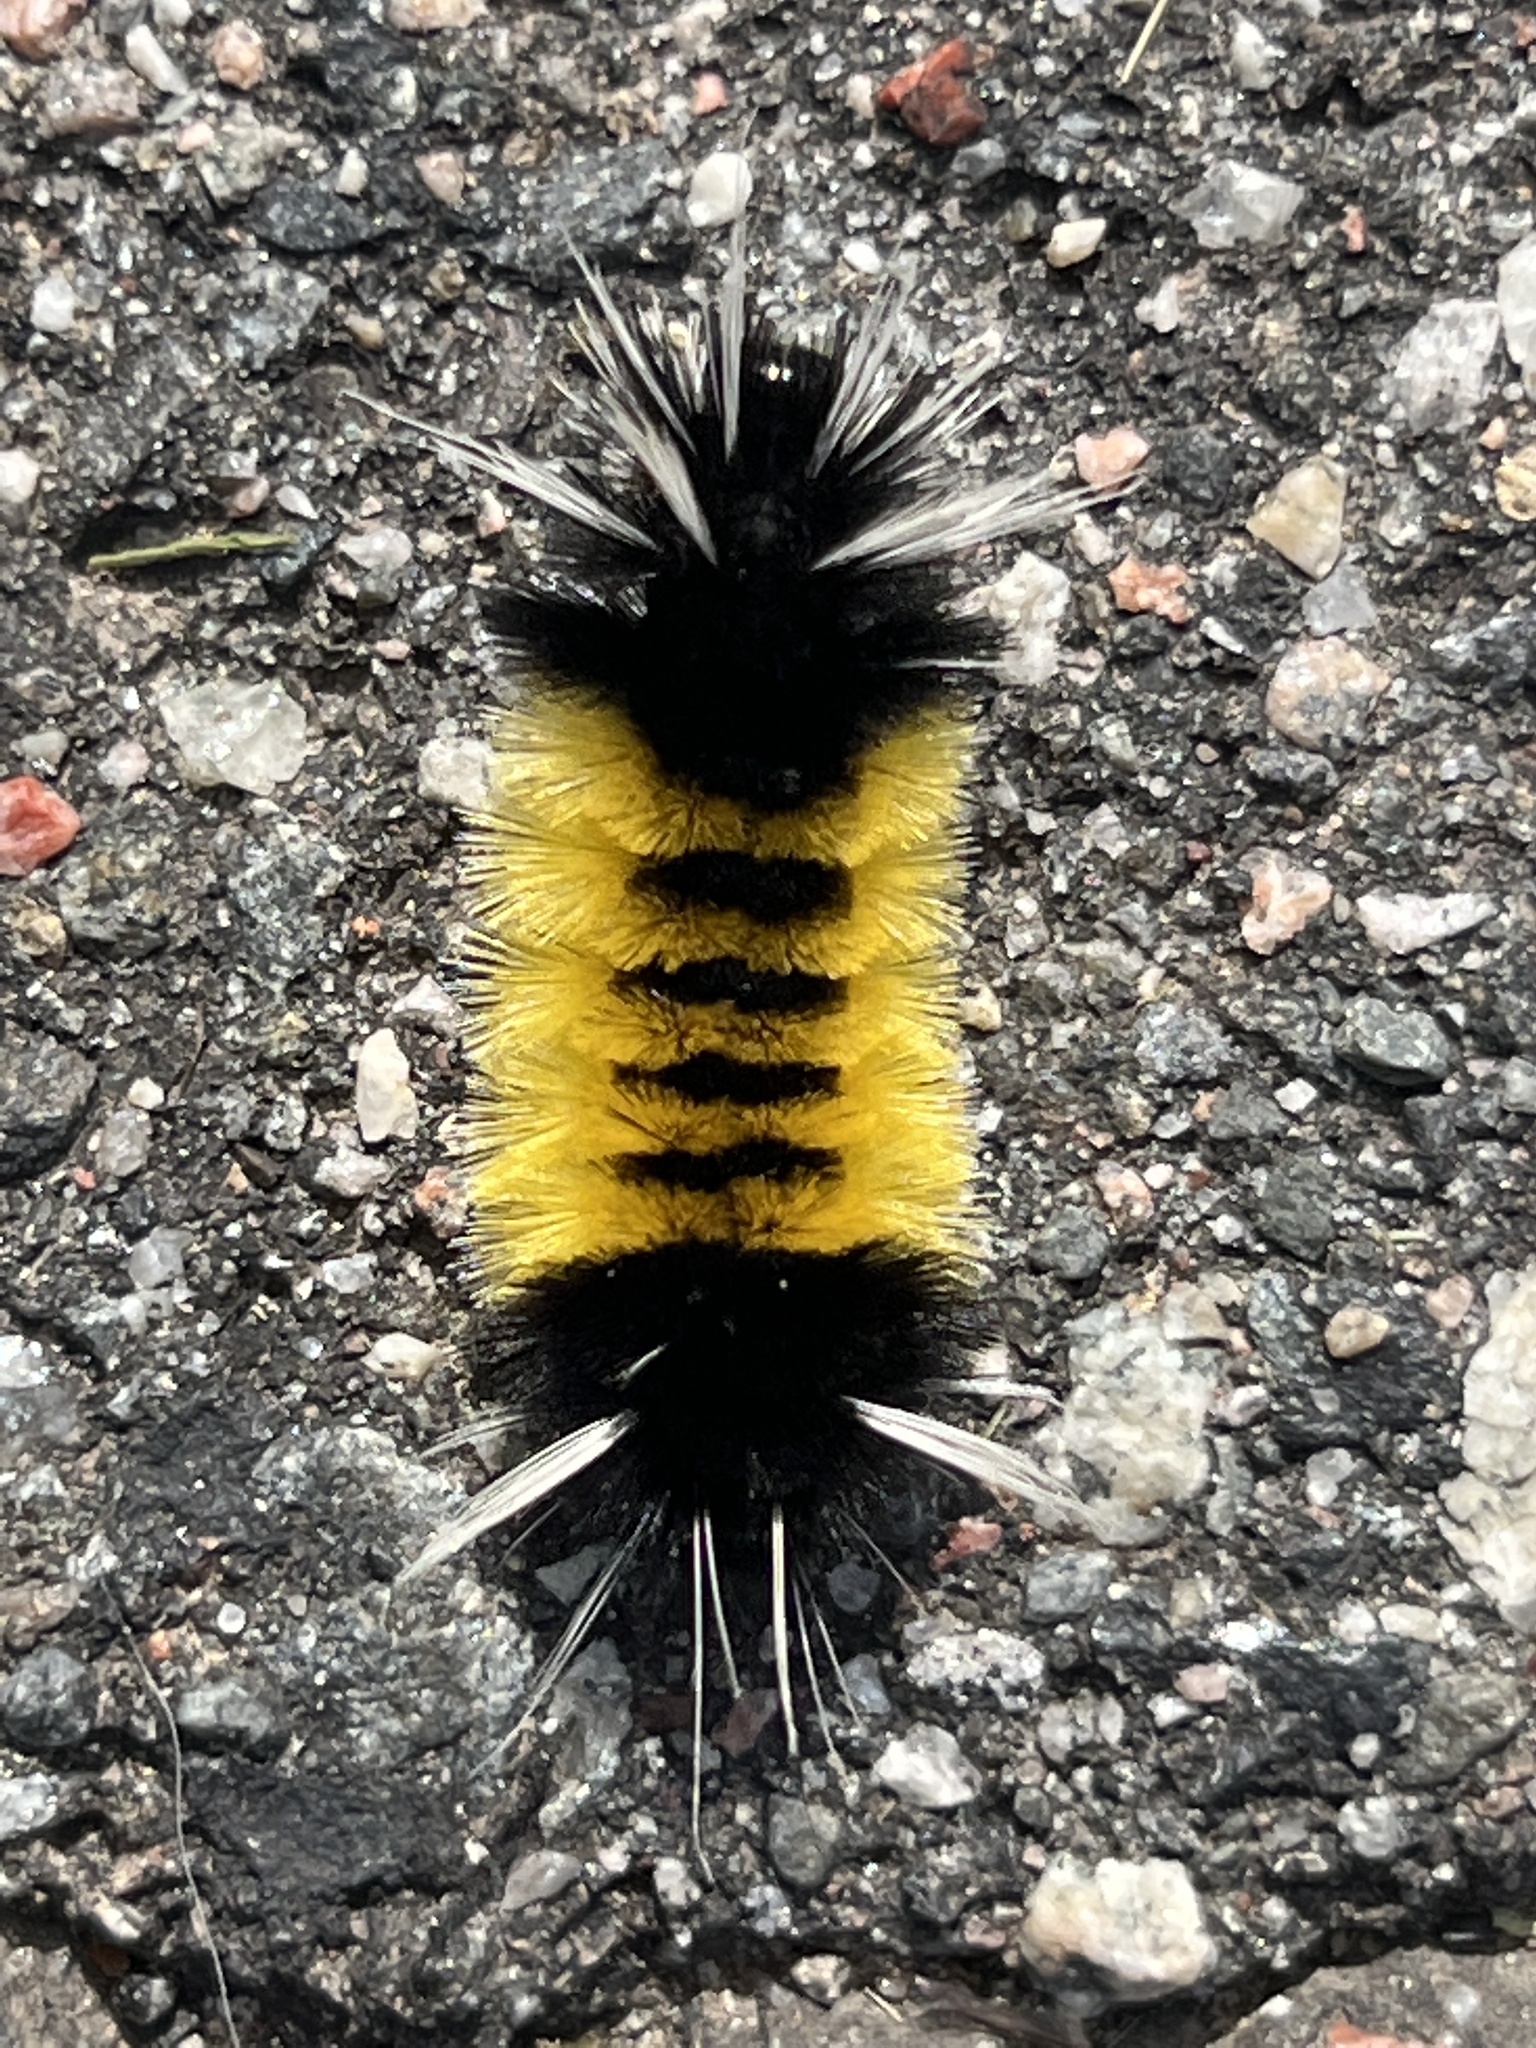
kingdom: Animalia
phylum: Arthropoda
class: Insecta
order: Lepidoptera
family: Erebidae
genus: Lophocampa
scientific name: Lophocampa maculata
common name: Spotted tussock moth
